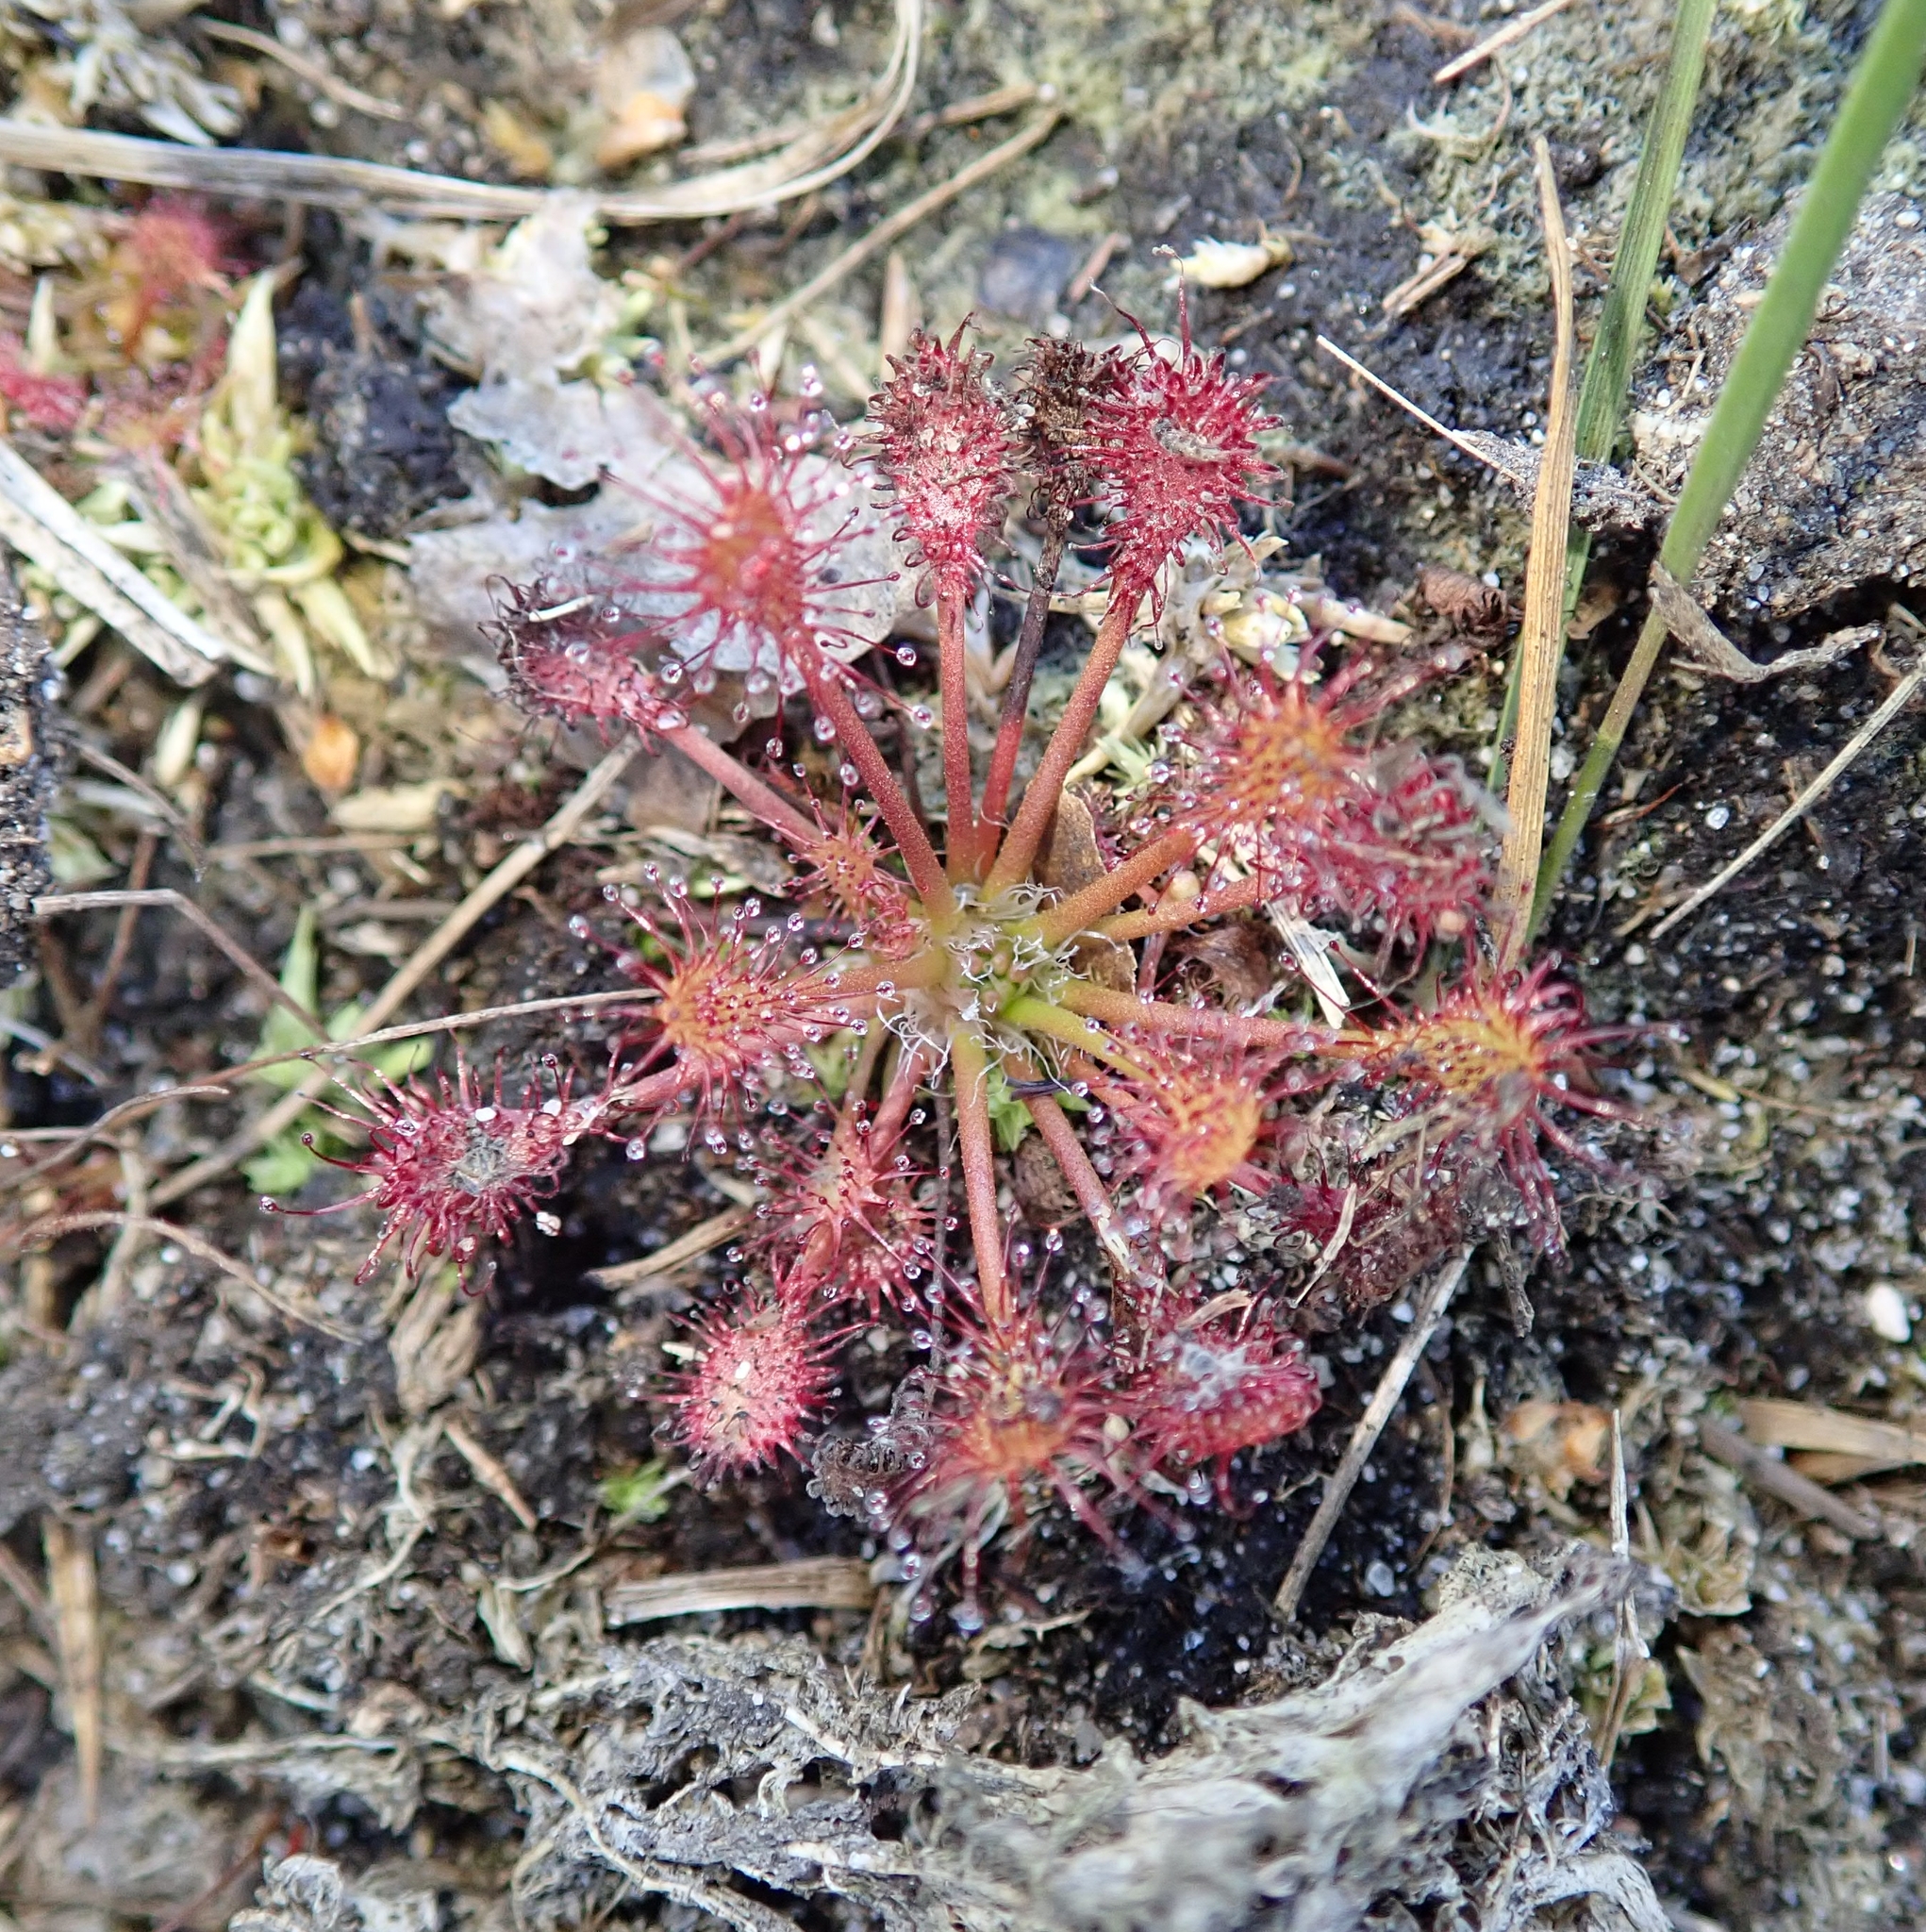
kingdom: Plantae
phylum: Tracheophyta
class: Magnoliopsida
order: Caryophyllales
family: Droseraceae
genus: Drosera
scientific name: Drosera intermedia
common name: Oblong-leaved sundew
